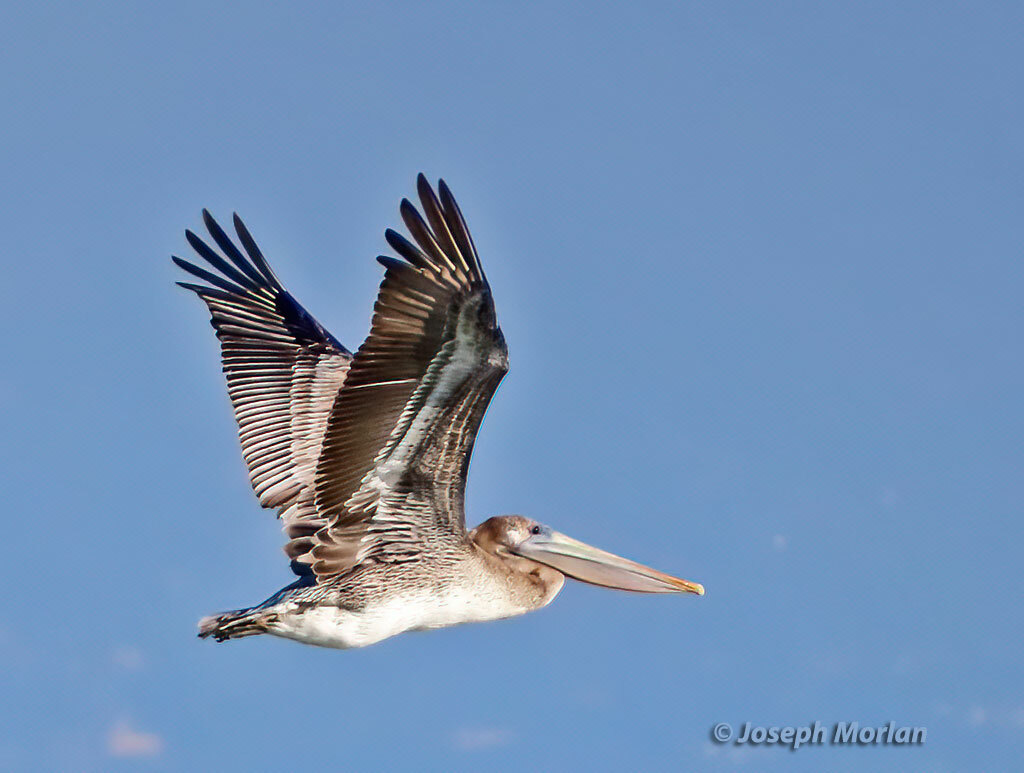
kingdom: Animalia
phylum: Chordata
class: Aves
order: Pelecaniformes
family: Pelecanidae
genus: Pelecanus
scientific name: Pelecanus occidentalis
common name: Brown pelican
